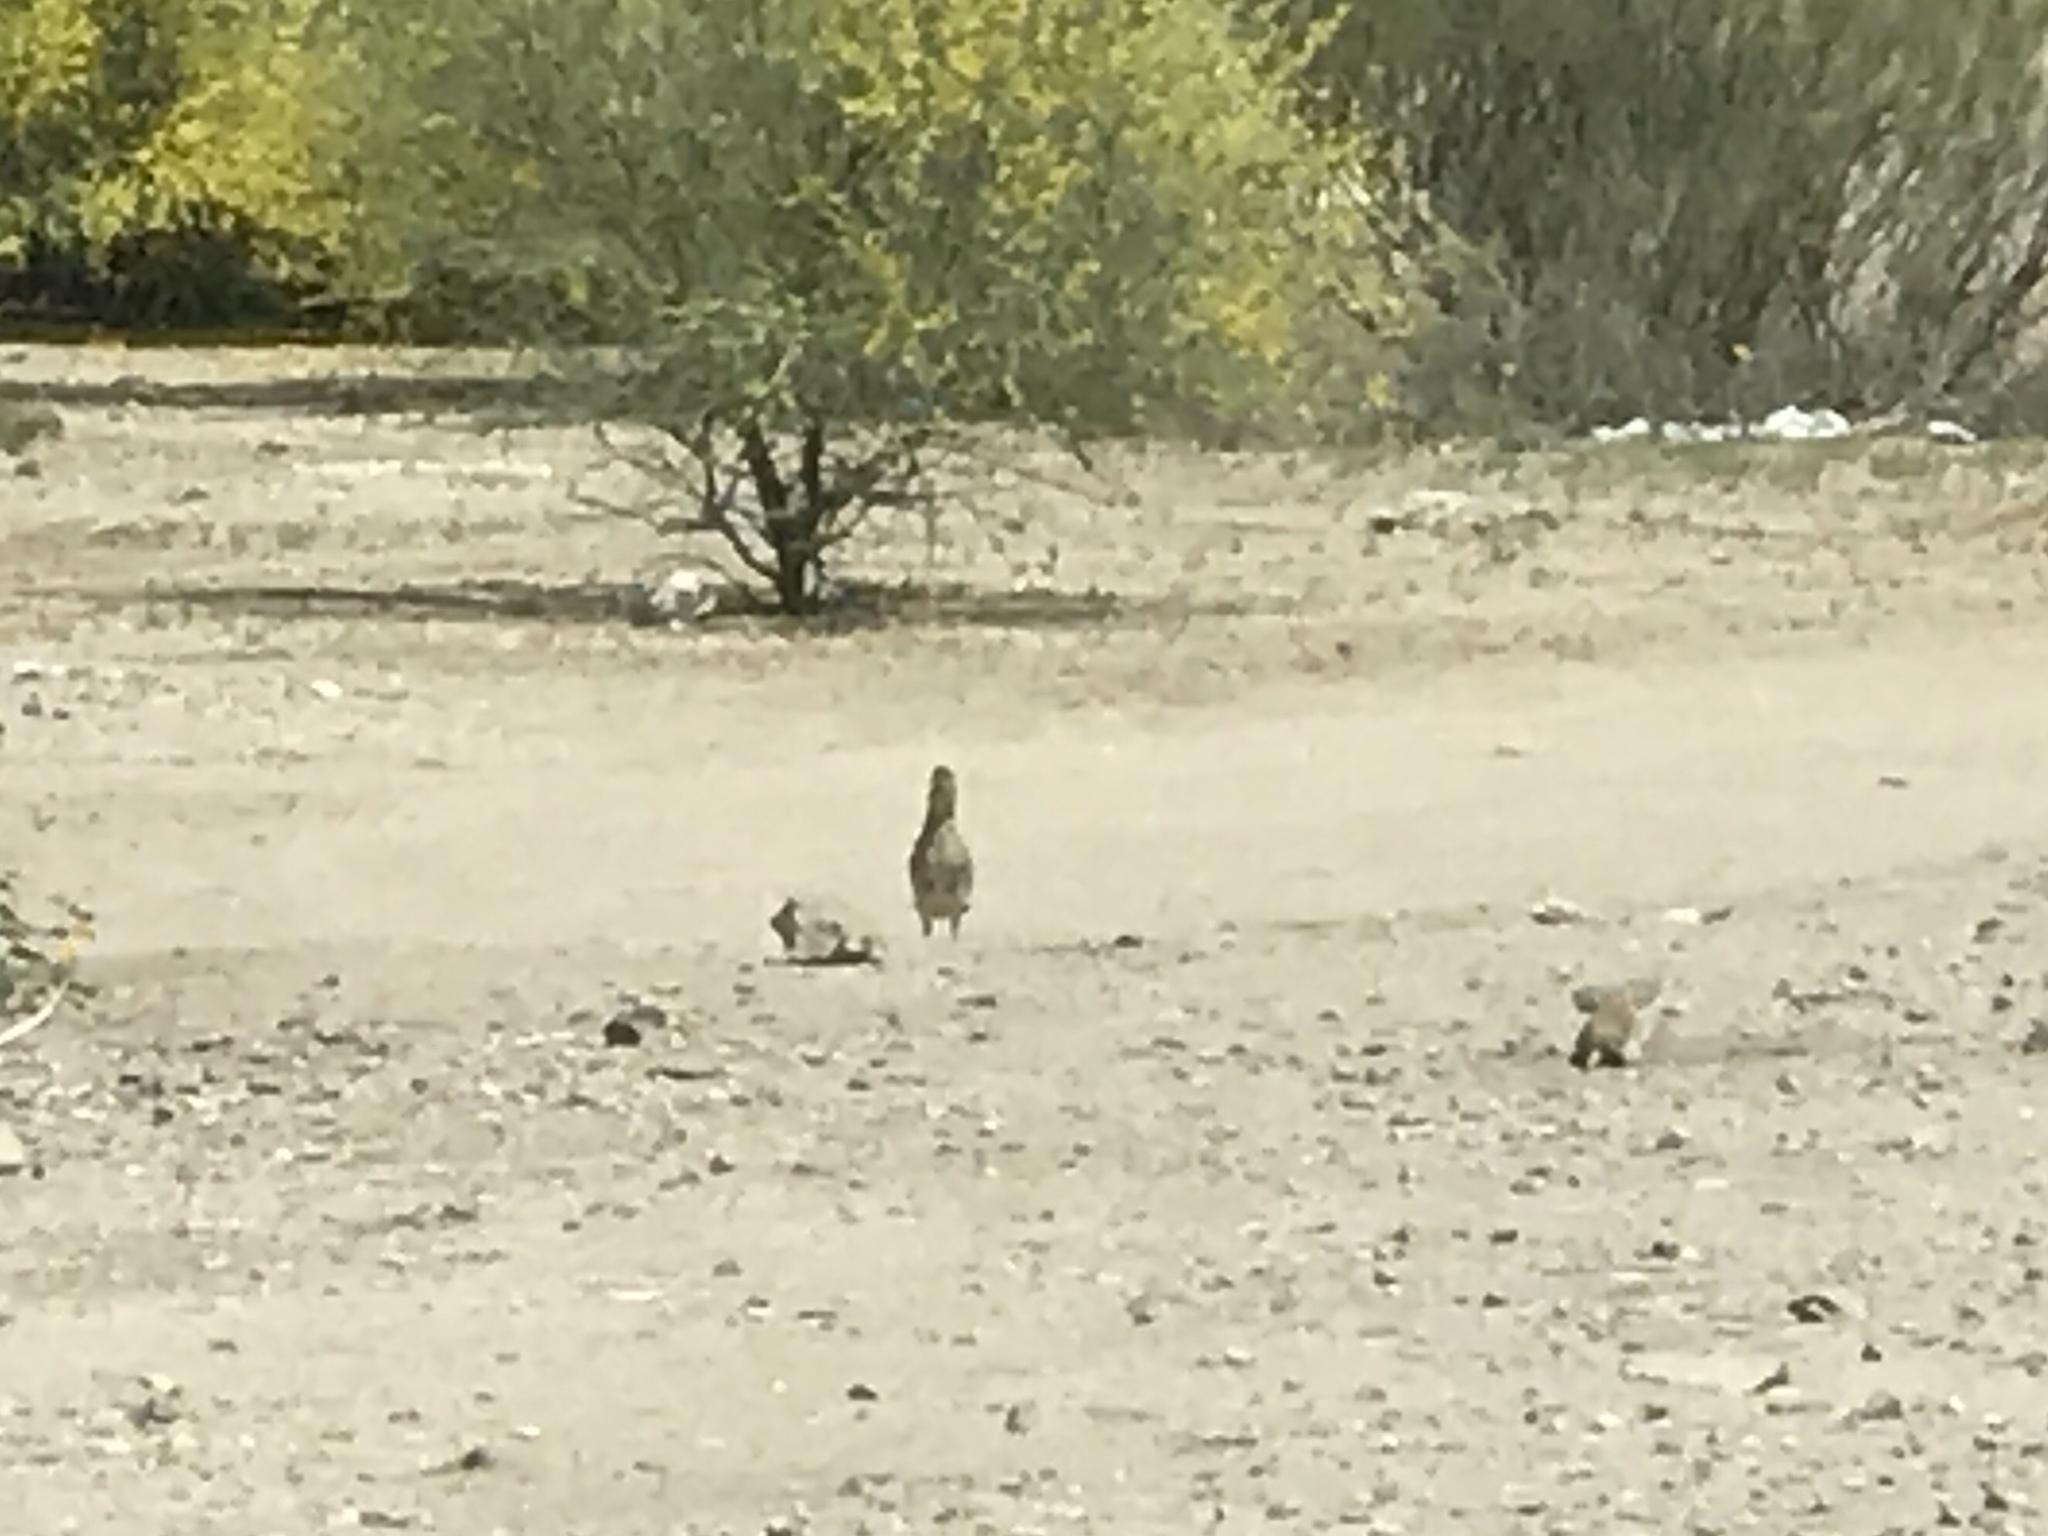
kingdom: Animalia
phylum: Chordata
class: Aves
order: Cuculiformes
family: Cuculidae
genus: Geococcyx
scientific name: Geococcyx californianus
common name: Greater roadrunner
